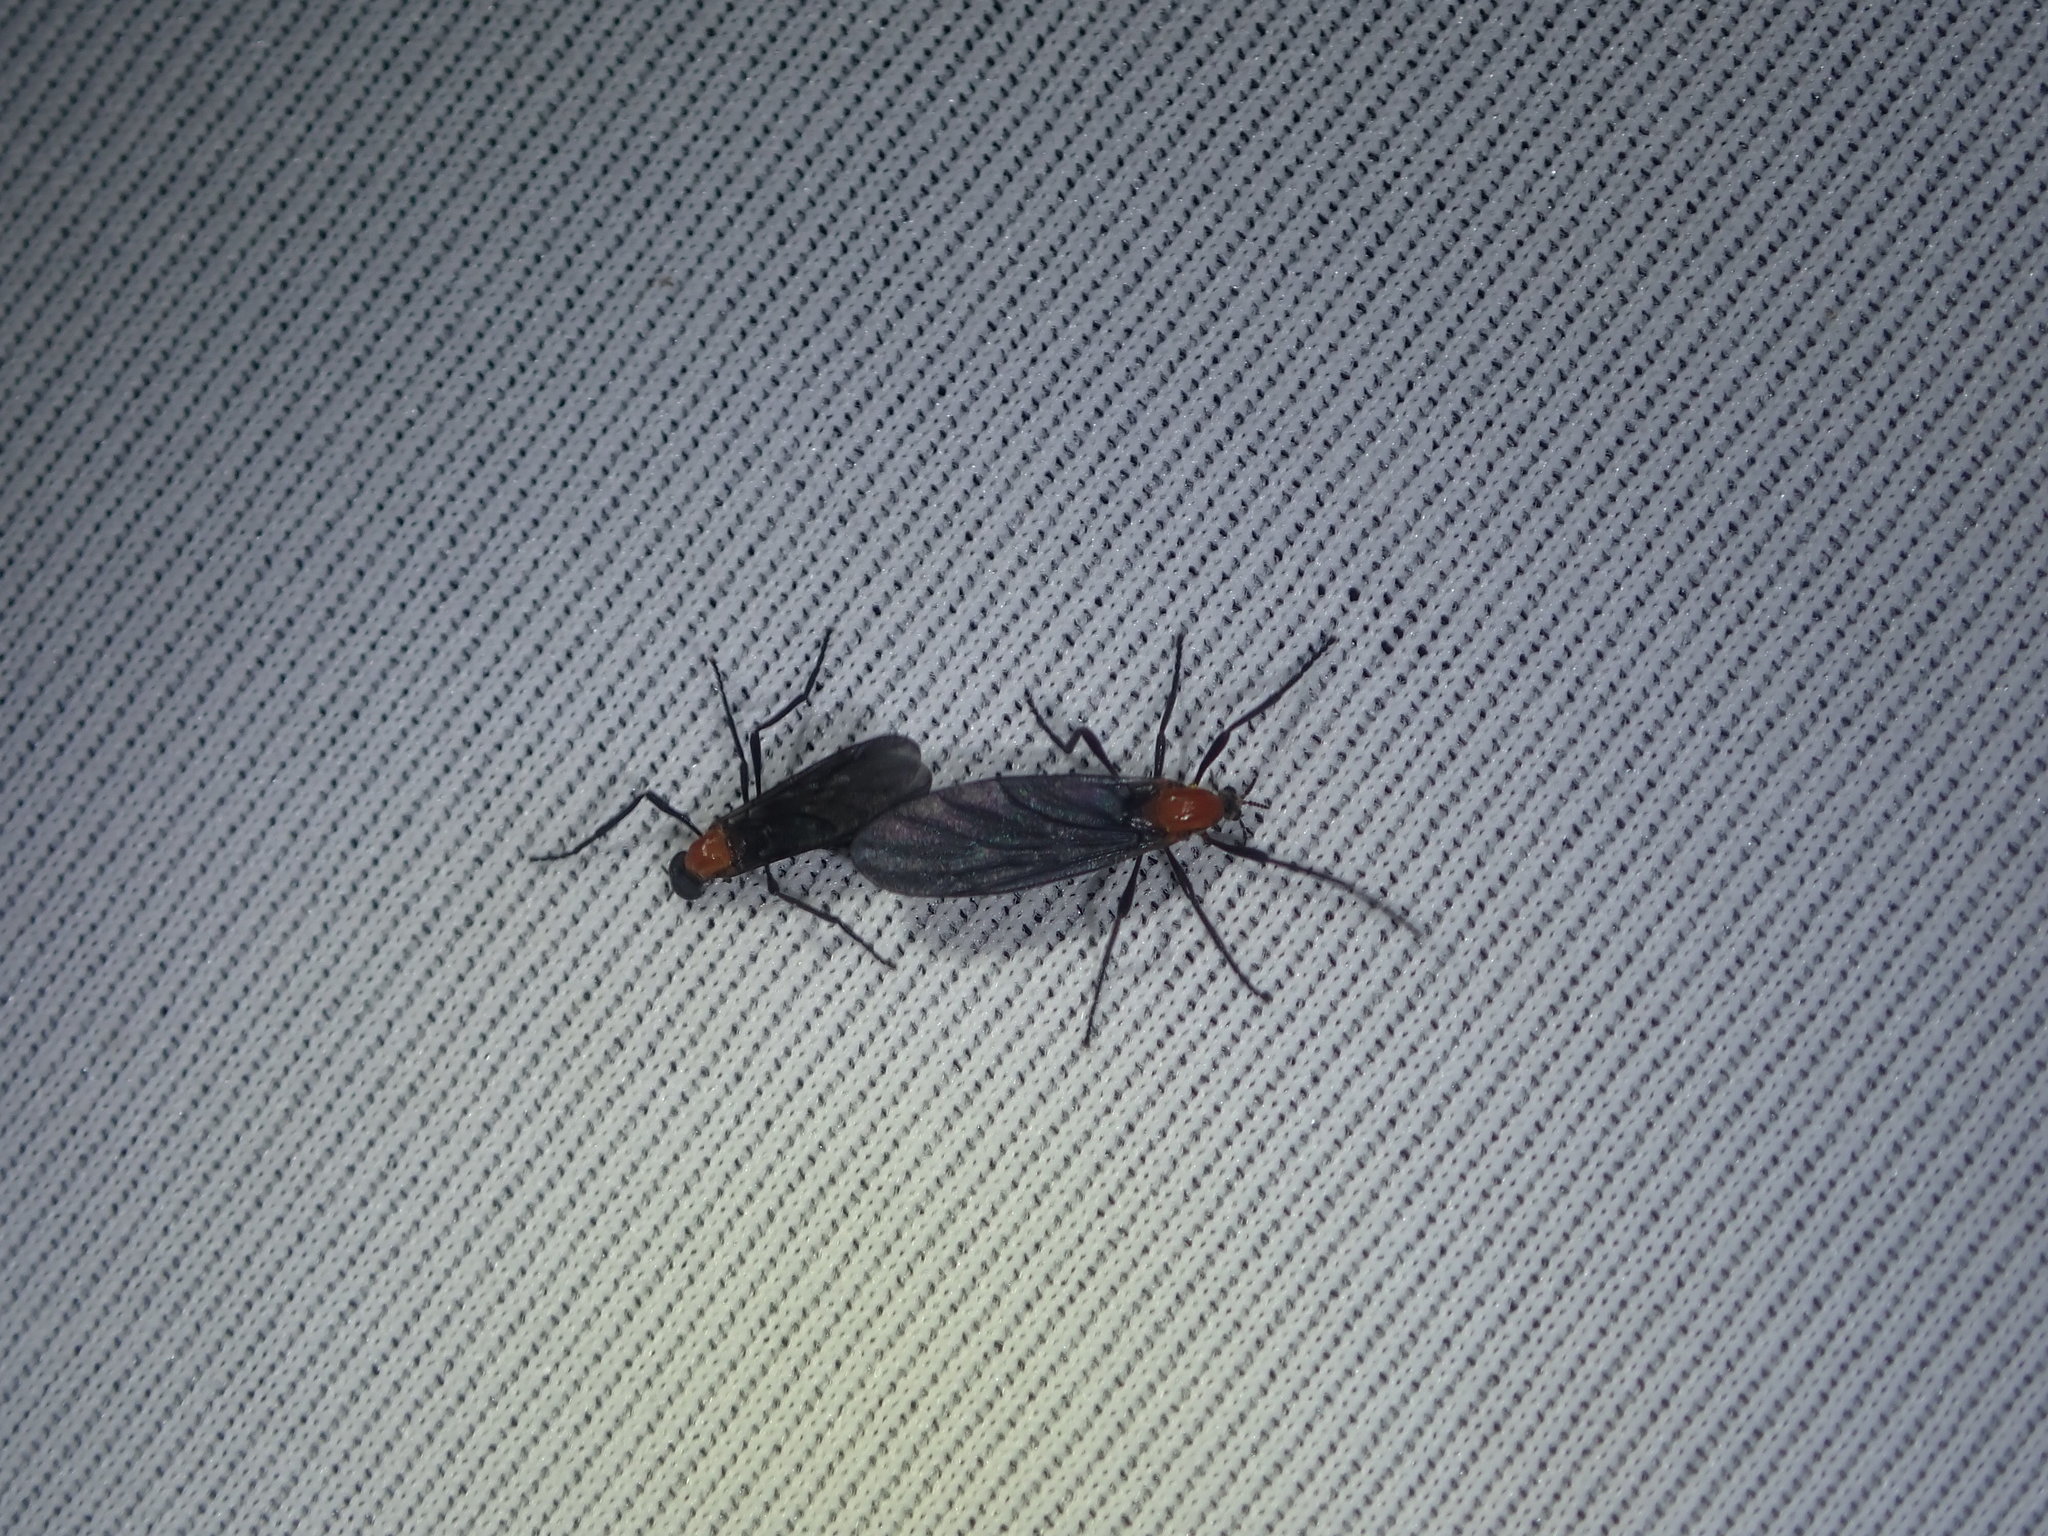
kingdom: Animalia
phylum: Arthropoda
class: Insecta
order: Diptera
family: Bibionidae
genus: Plecia
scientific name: Plecia dimidiata
